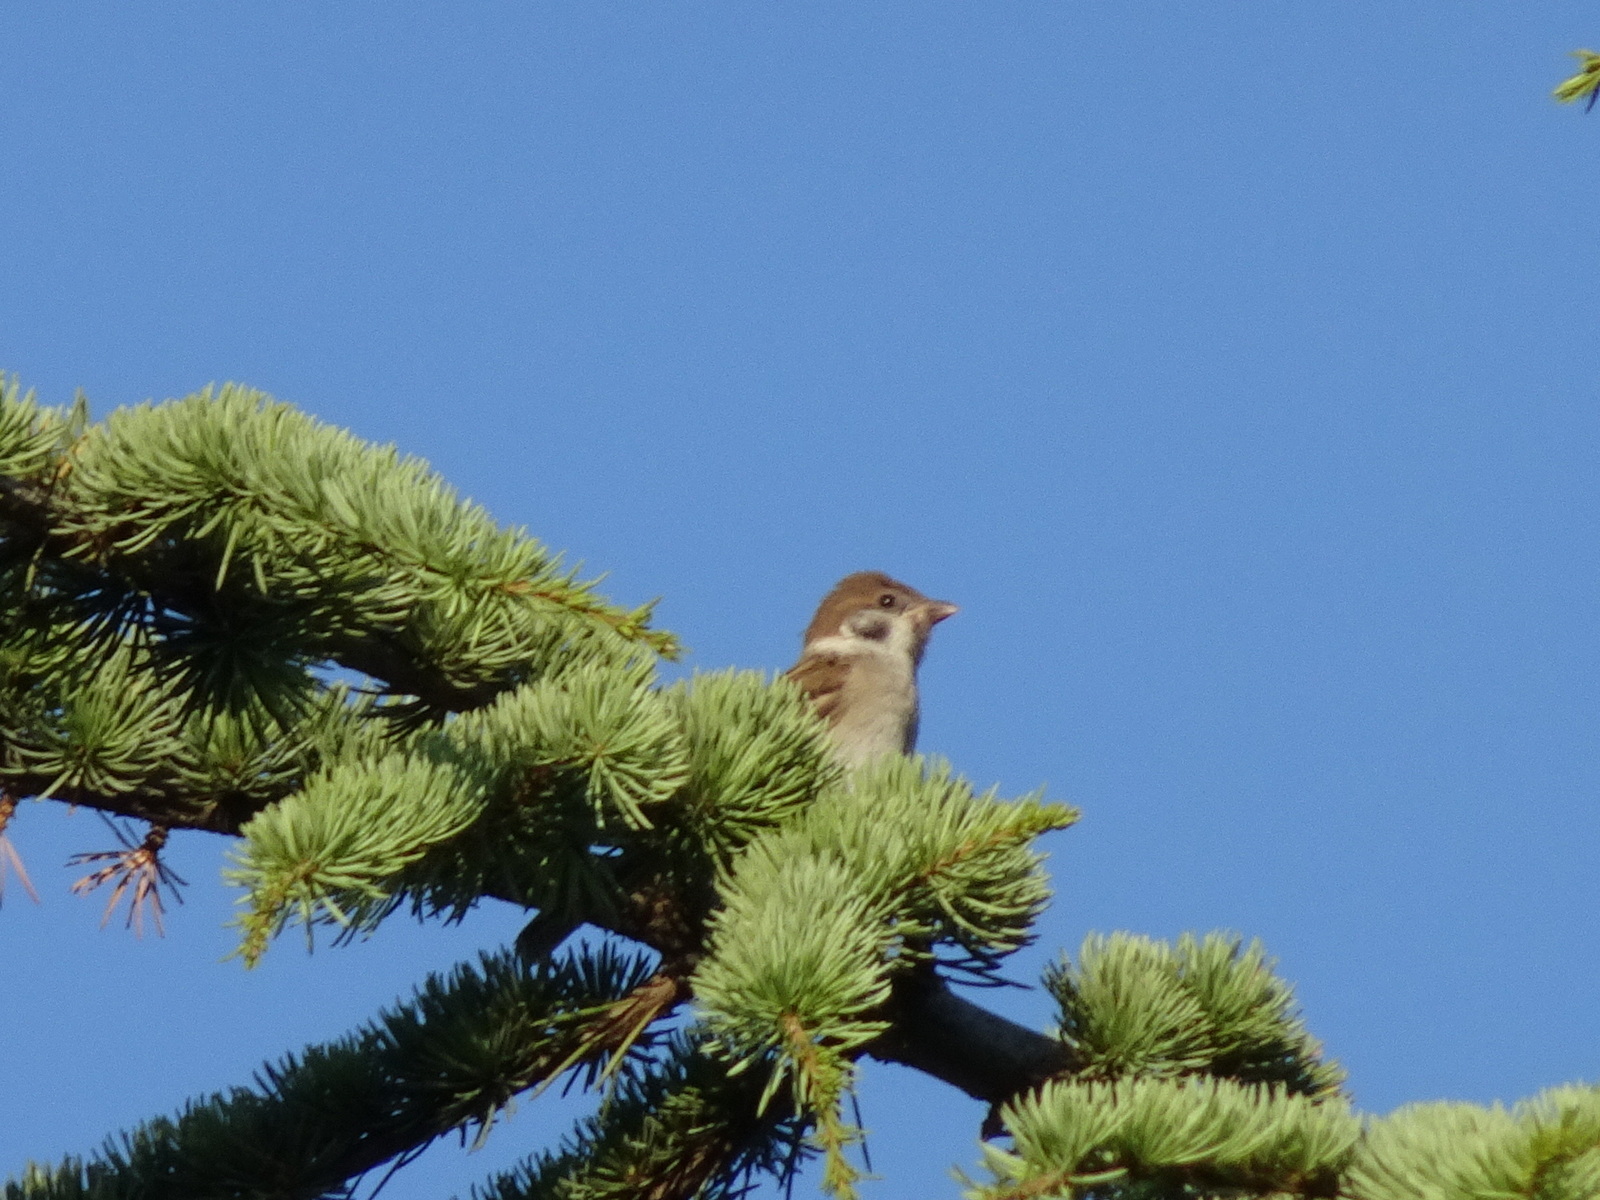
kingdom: Animalia
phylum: Chordata
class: Aves
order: Passeriformes
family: Passeridae
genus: Passer
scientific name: Passer montanus
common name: Eurasian tree sparrow
